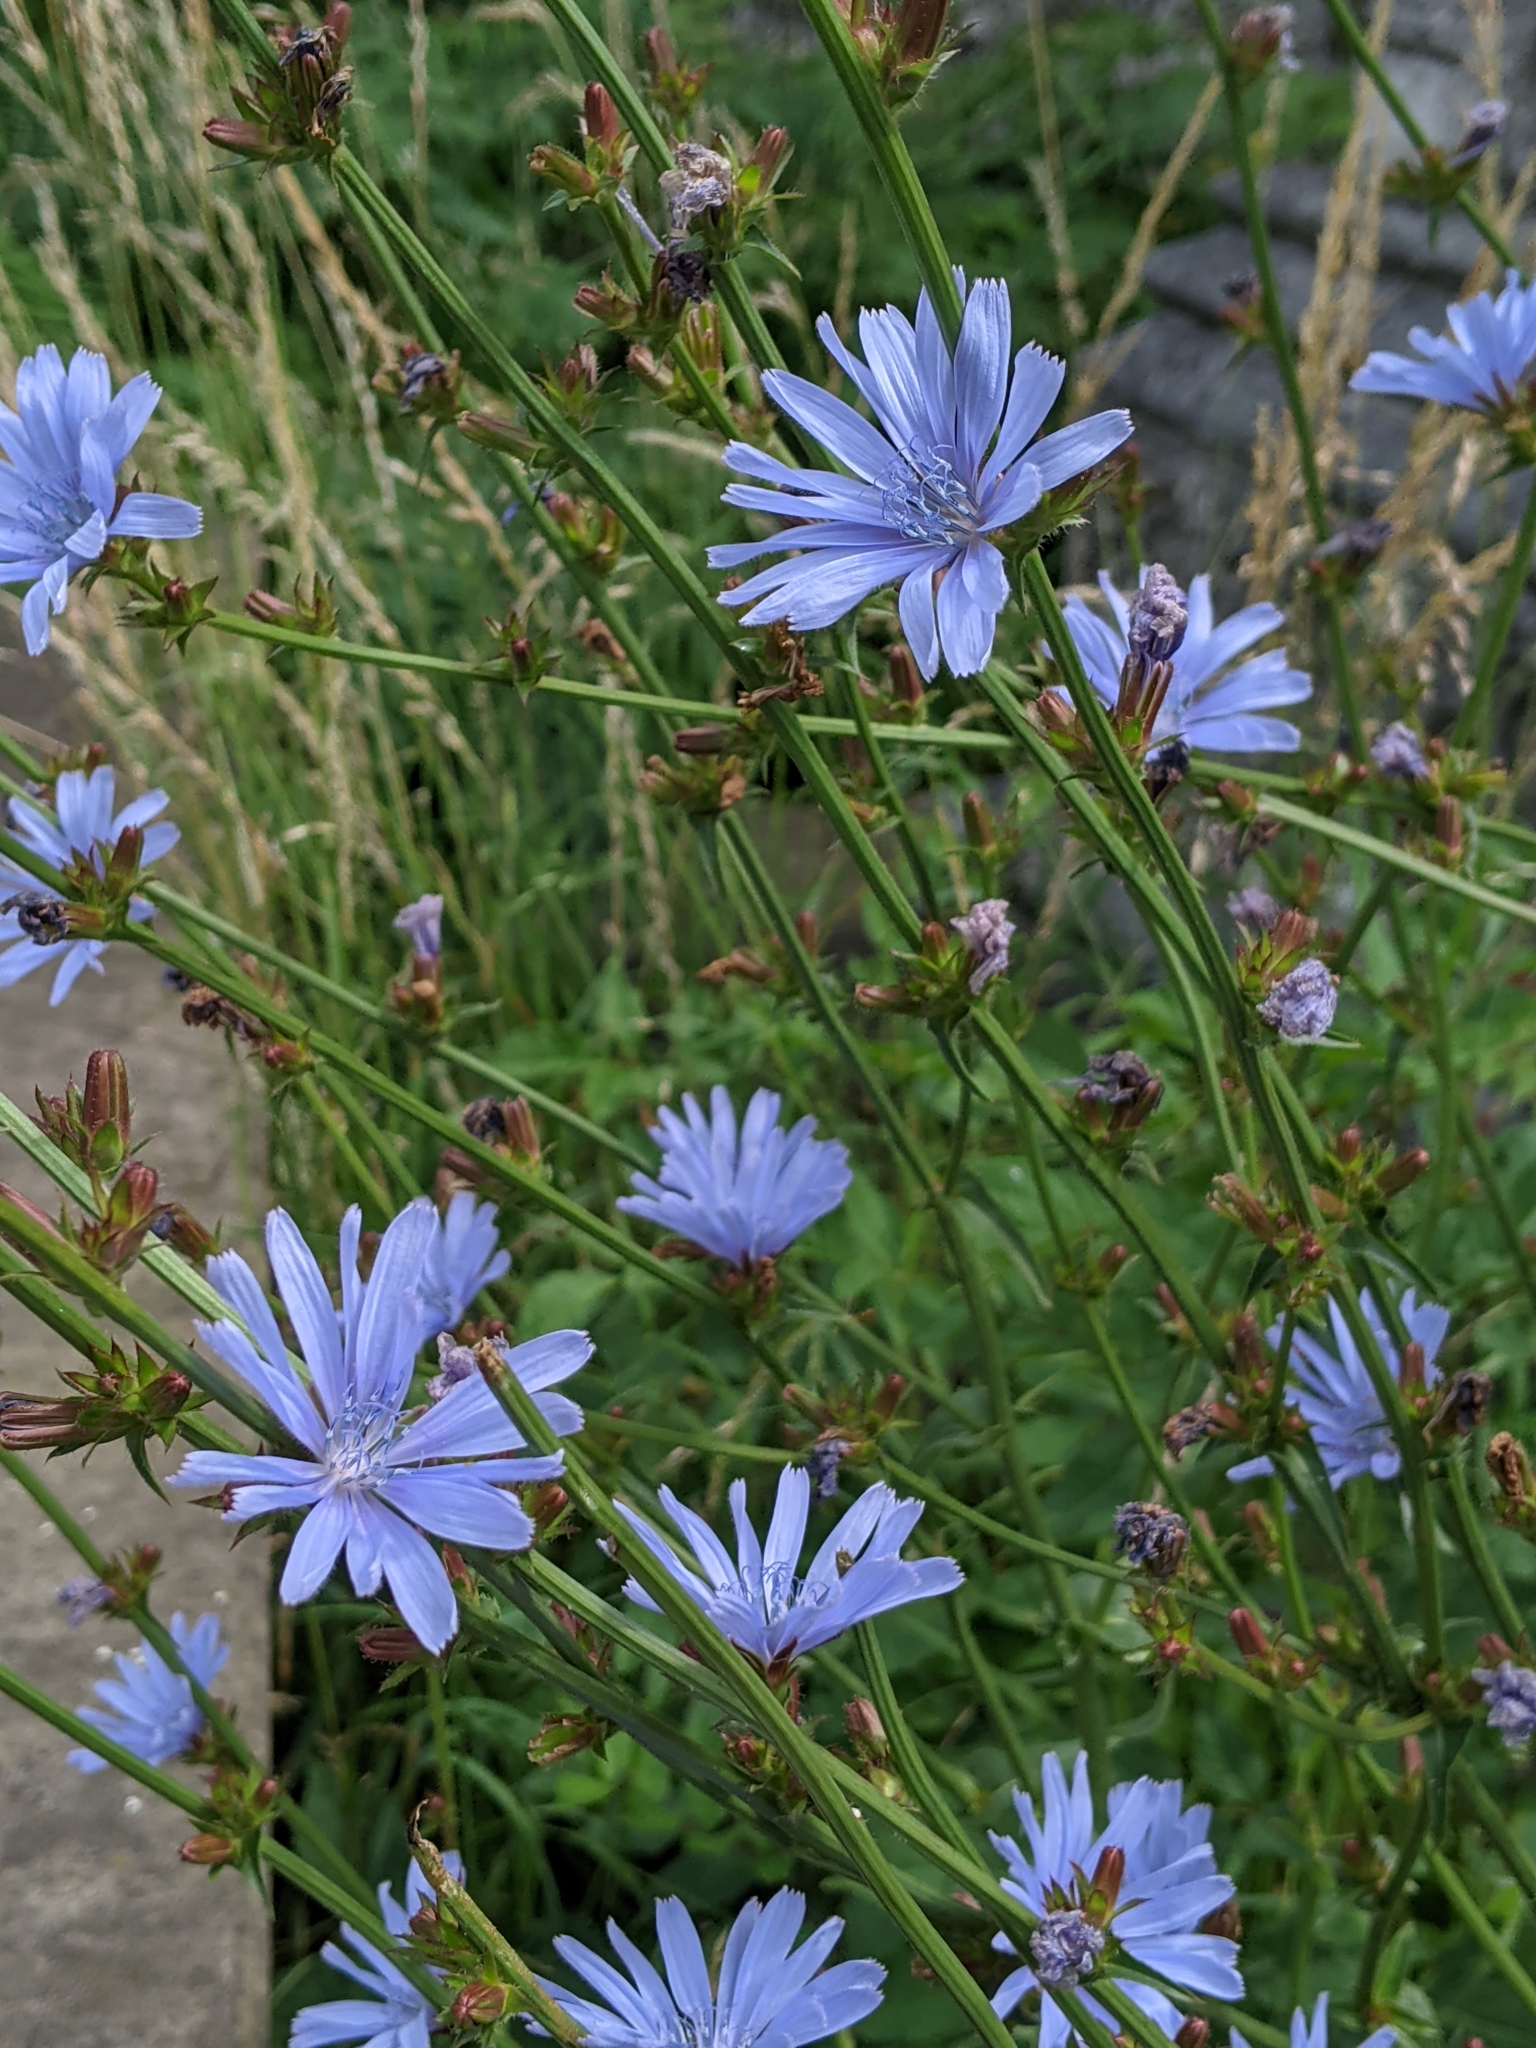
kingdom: Plantae
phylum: Tracheophyta
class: Magnoliopsida
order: Asterales
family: Asteraceae
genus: Cichorium
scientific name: Cichorium intybus
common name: Chicory
